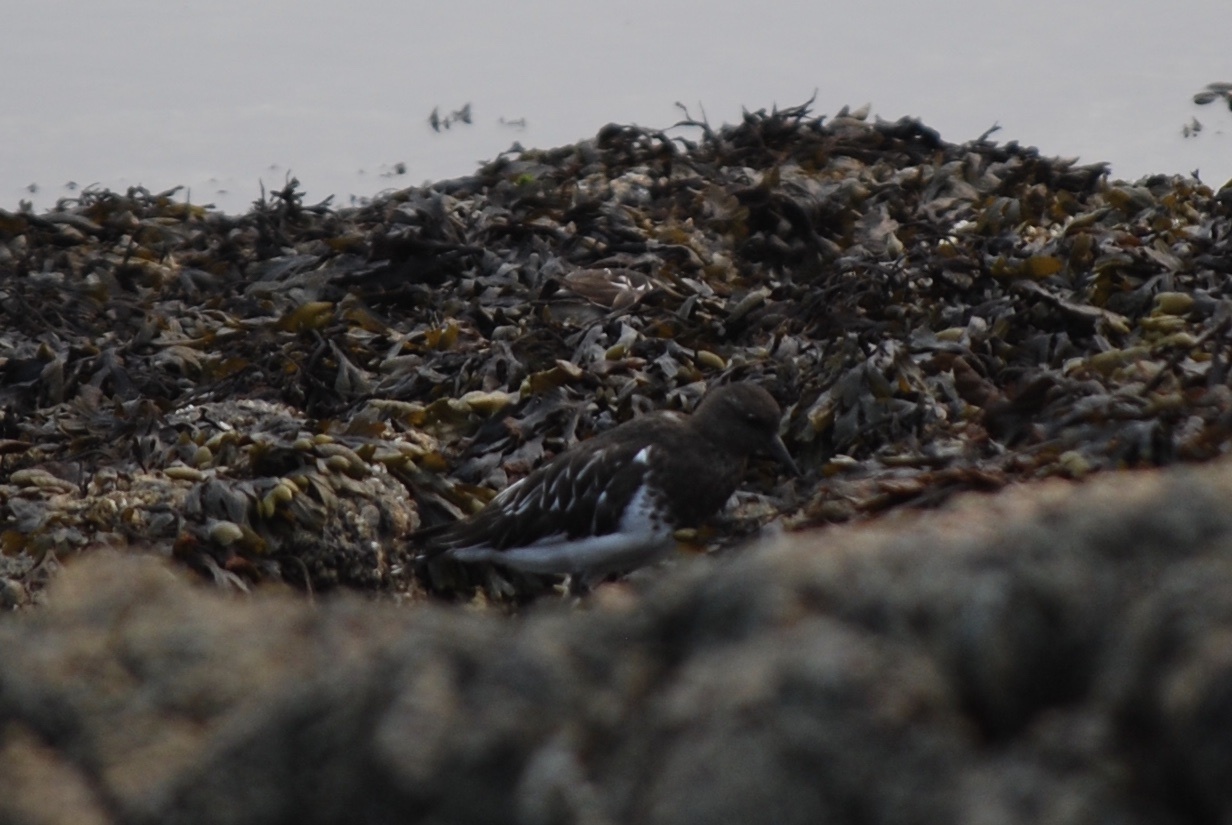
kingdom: Animalia
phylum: Chordata
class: Aves
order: Charadriiformes
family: Scolopacidae
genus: Arenaria
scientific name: Arenaria melanocephala
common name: Black turnstone
